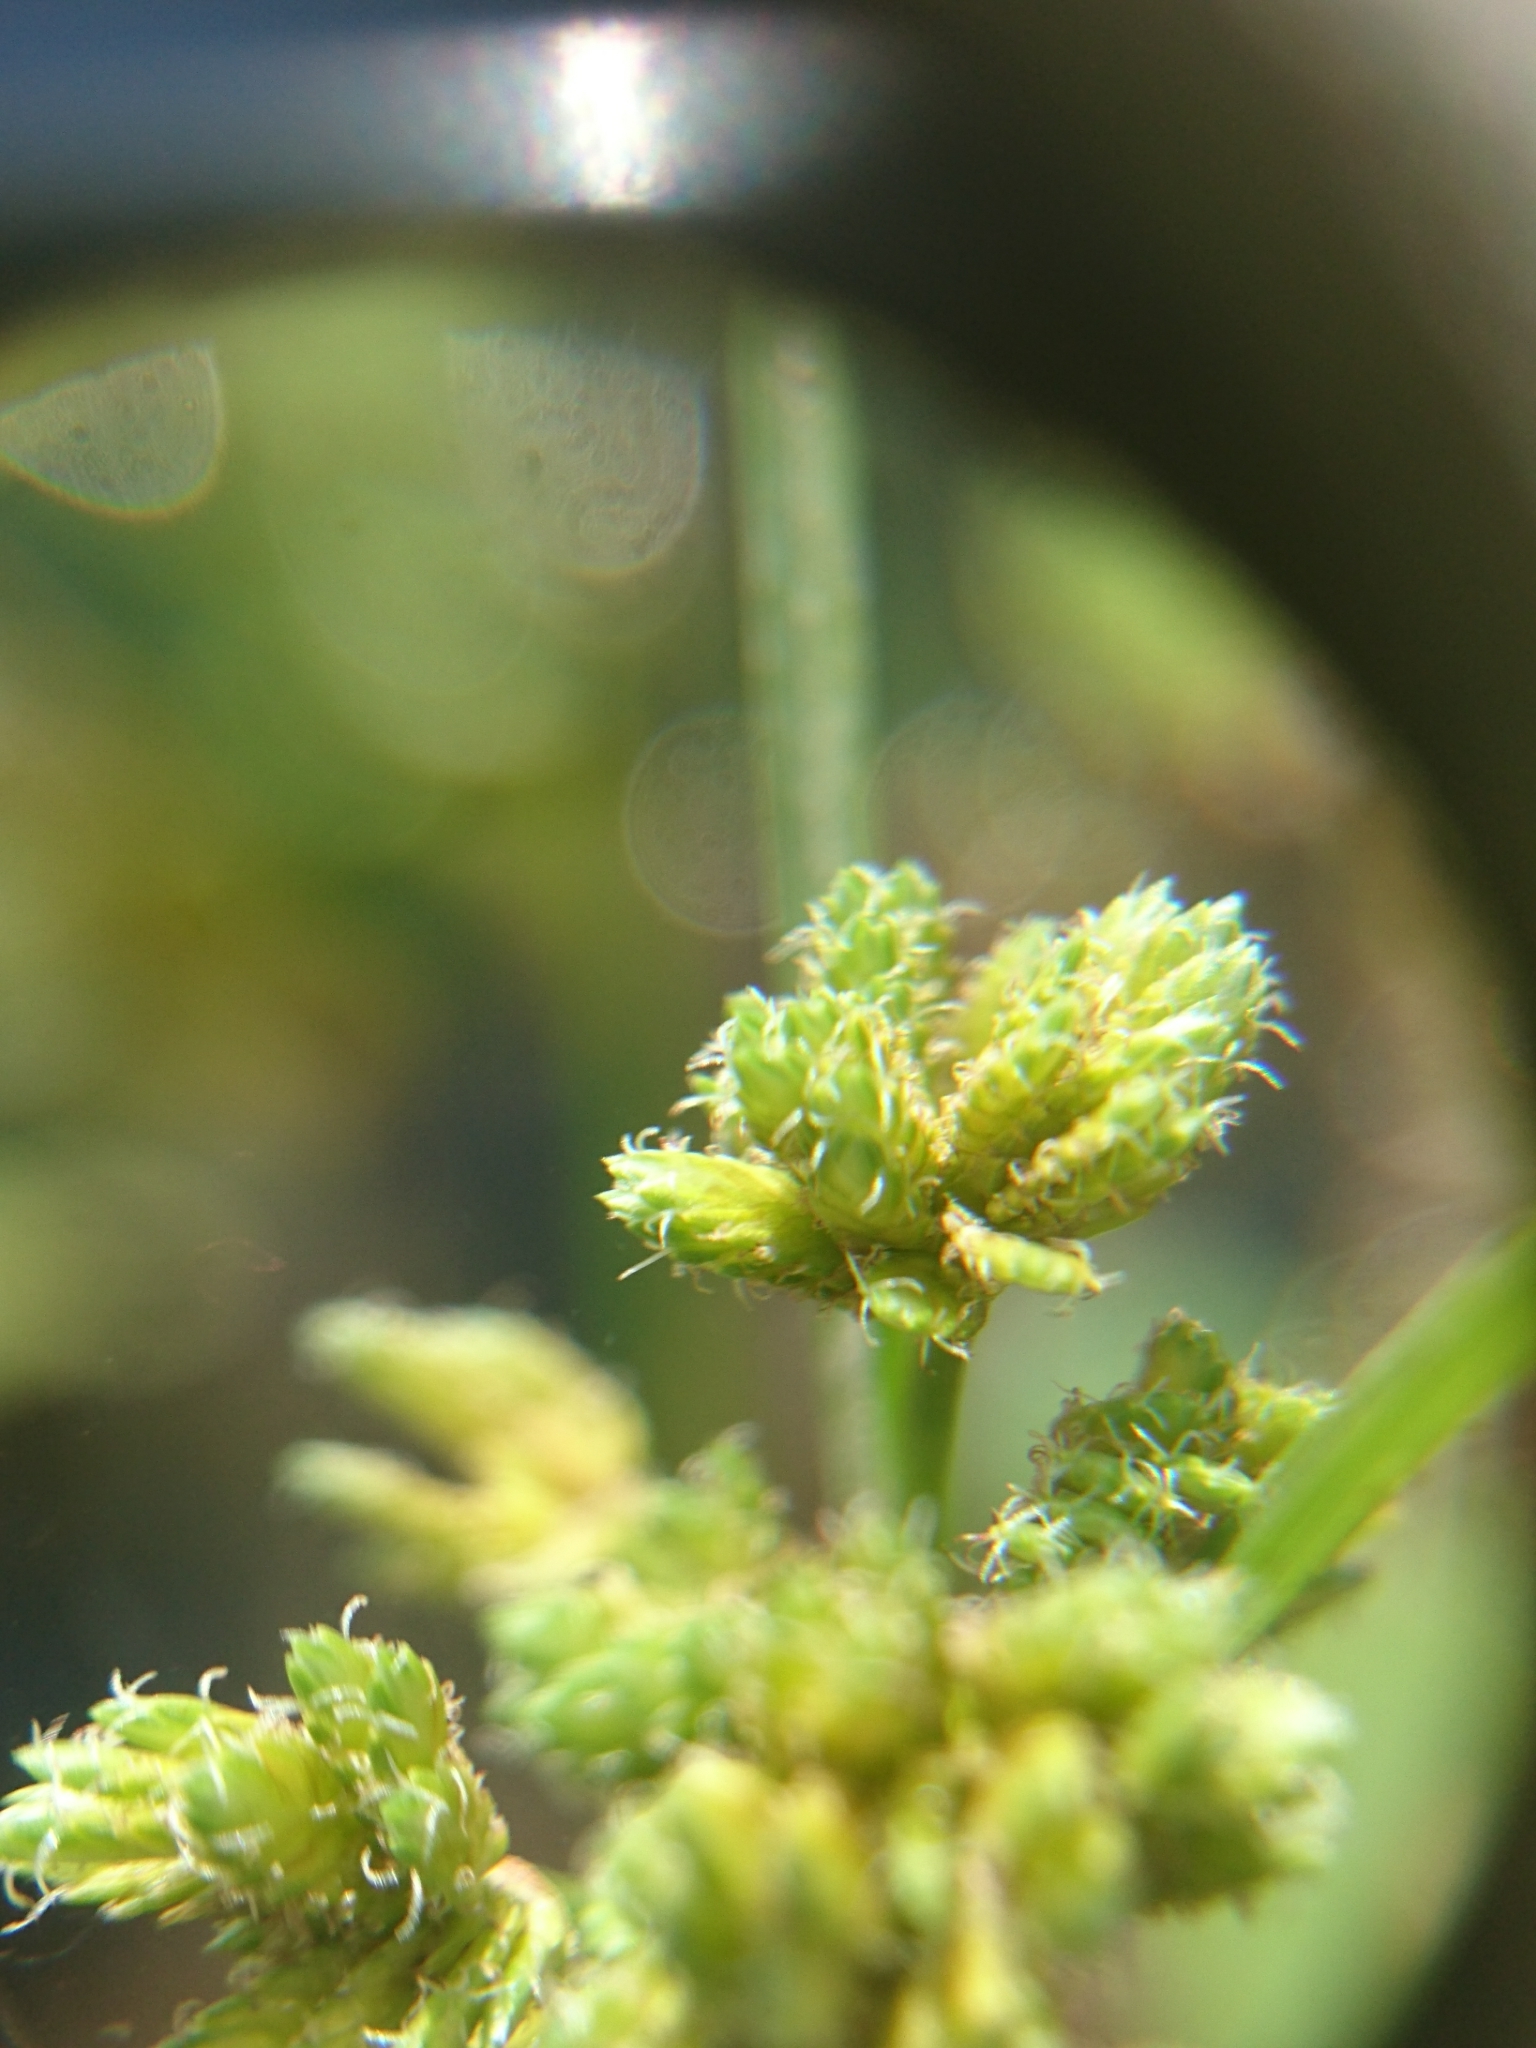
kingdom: Plantae
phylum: Tracheophyta
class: Liliopsida
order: Poales
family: Cyperaceae
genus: Cyperus
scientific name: Cyperus surinamensis
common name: Tropical flat sedge
